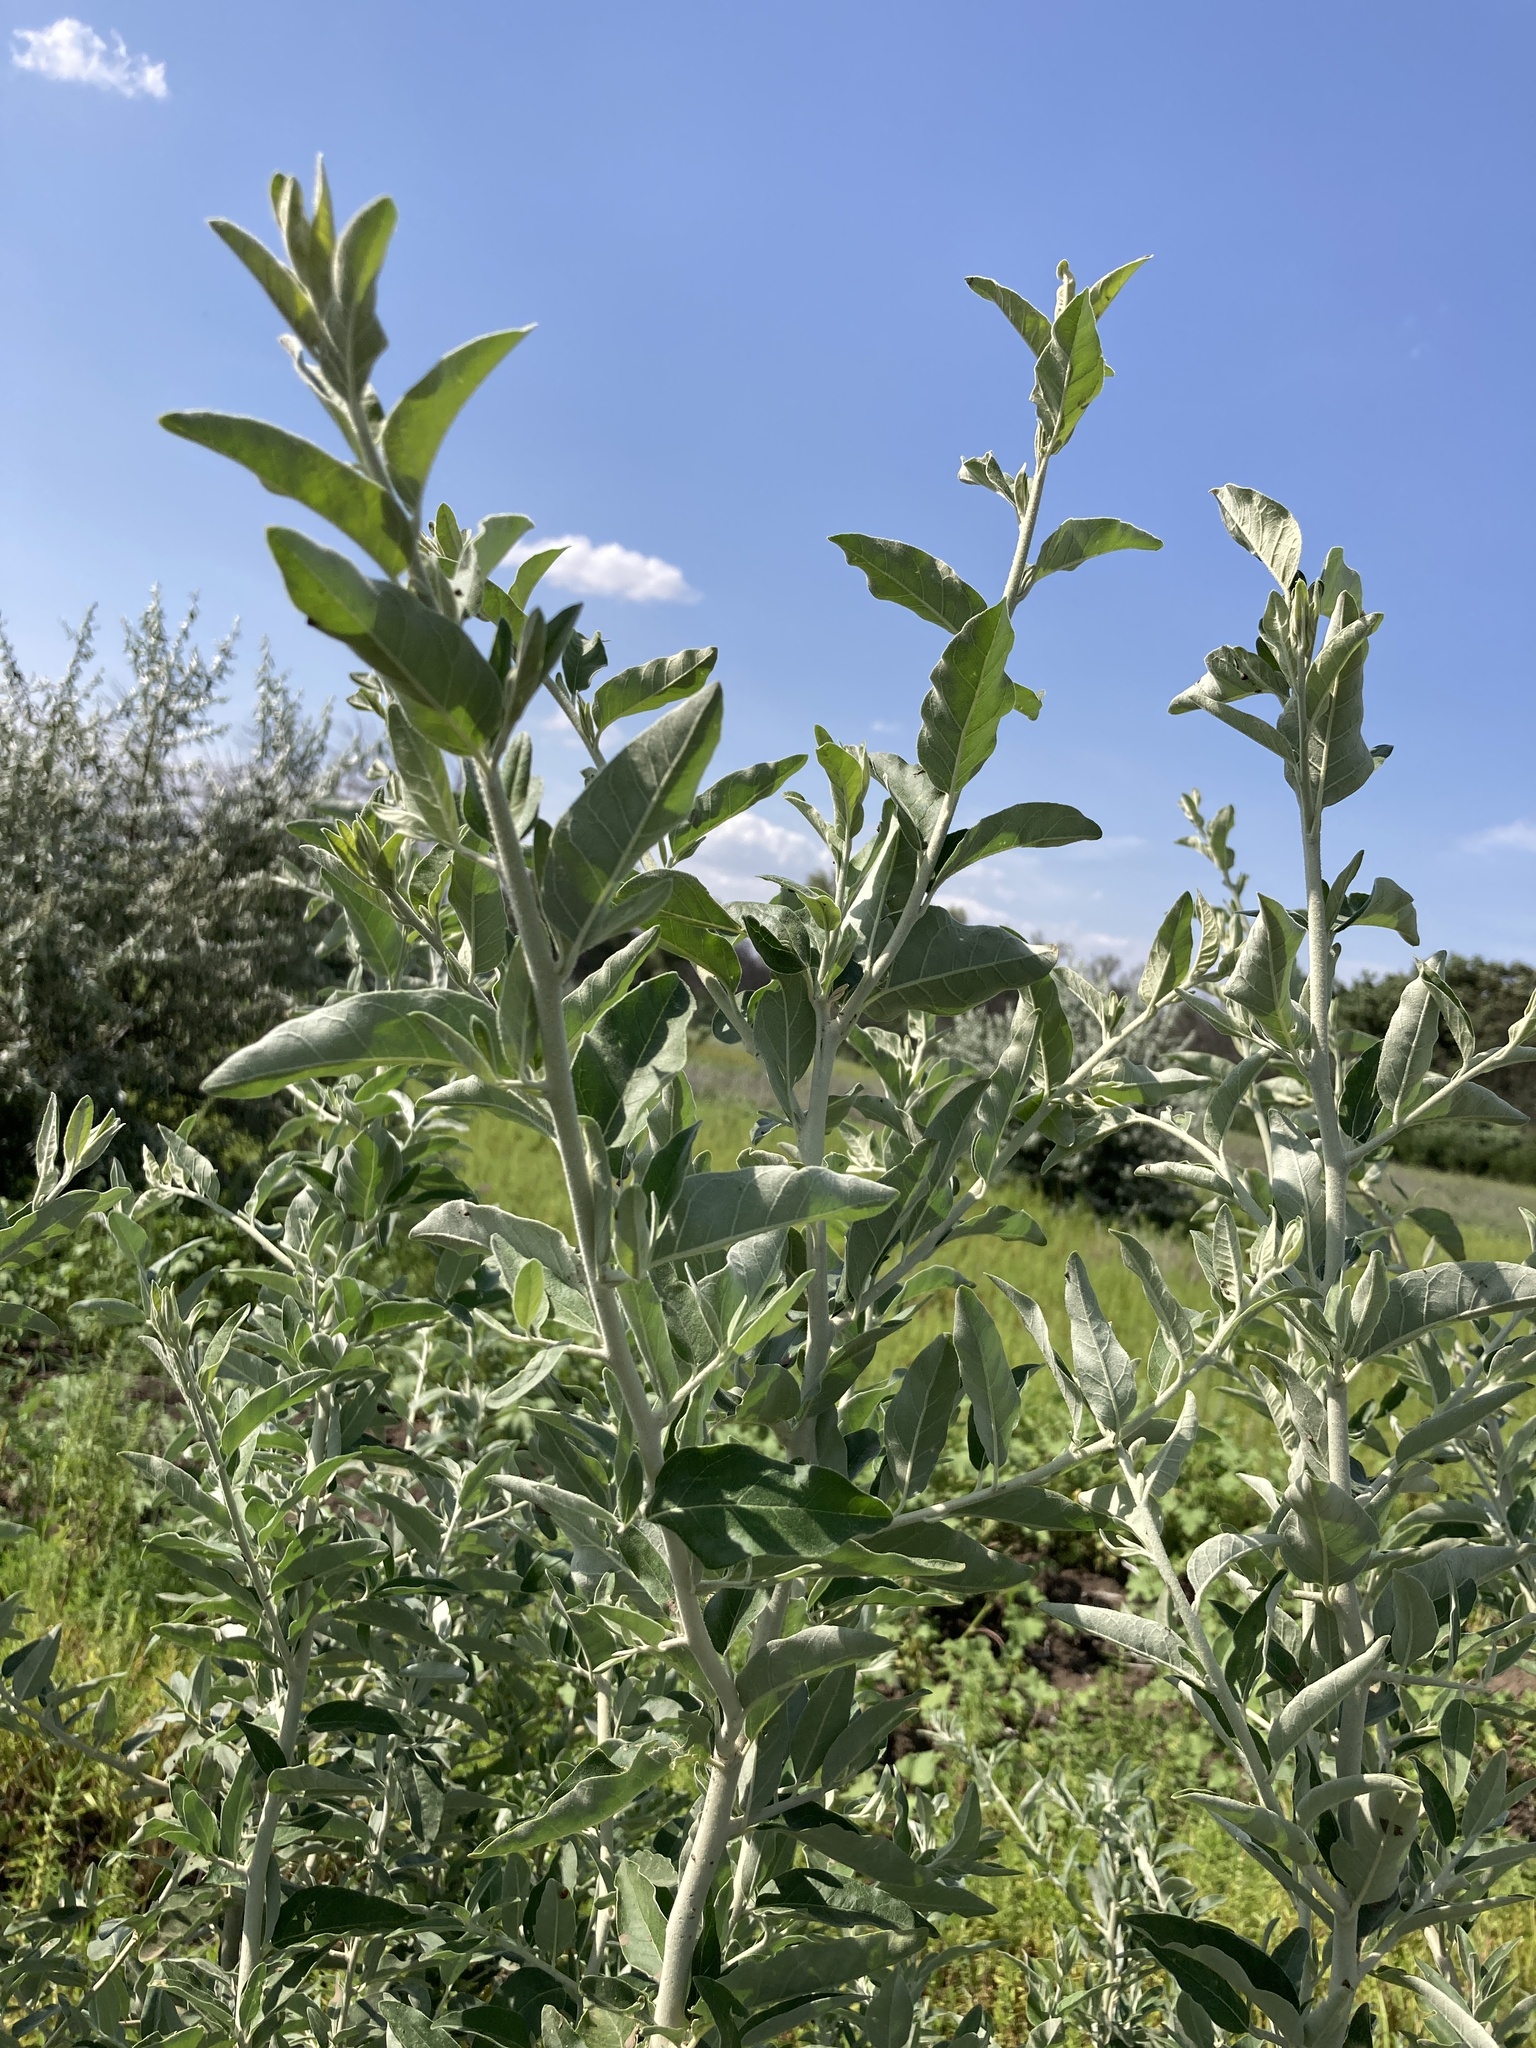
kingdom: Plantae
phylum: Tracheophyta
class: Magnoliopsida
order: Rosales
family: Elaeagnaceae
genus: Elaeagnus
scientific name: Elaeagnus angustifolia
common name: Russian olive
